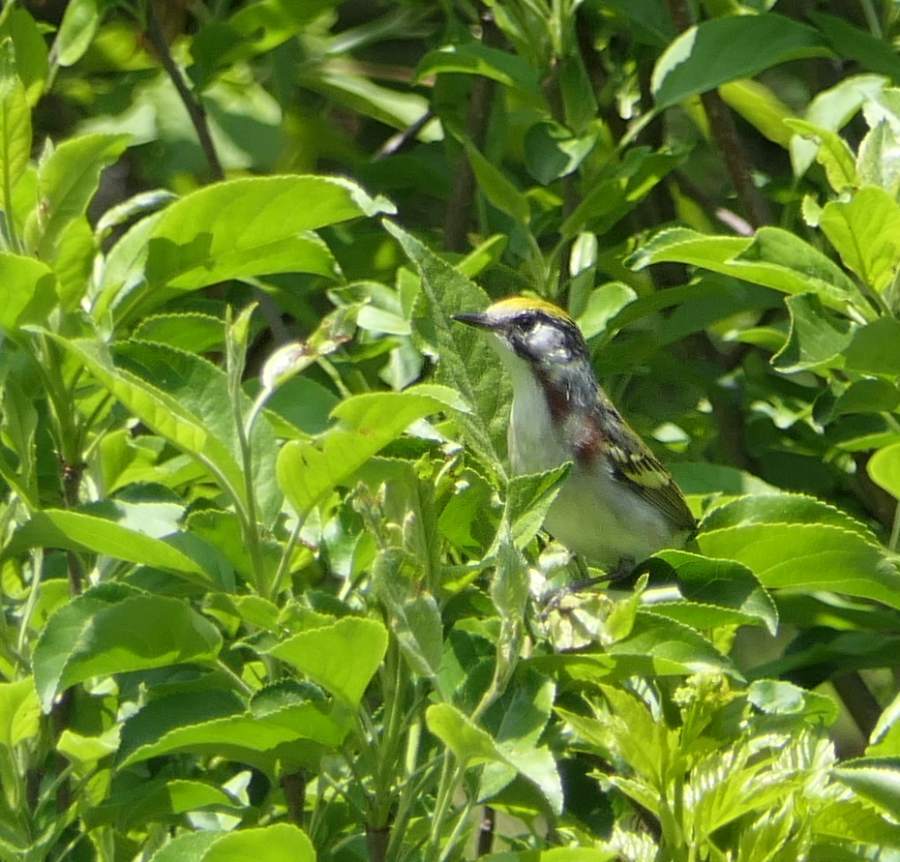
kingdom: Animalia
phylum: Chordata
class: Aves
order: Passeriformes
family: Parulidae
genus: Setophaga
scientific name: Setophaga pensylvanica
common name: Chestnut-sided warbler
